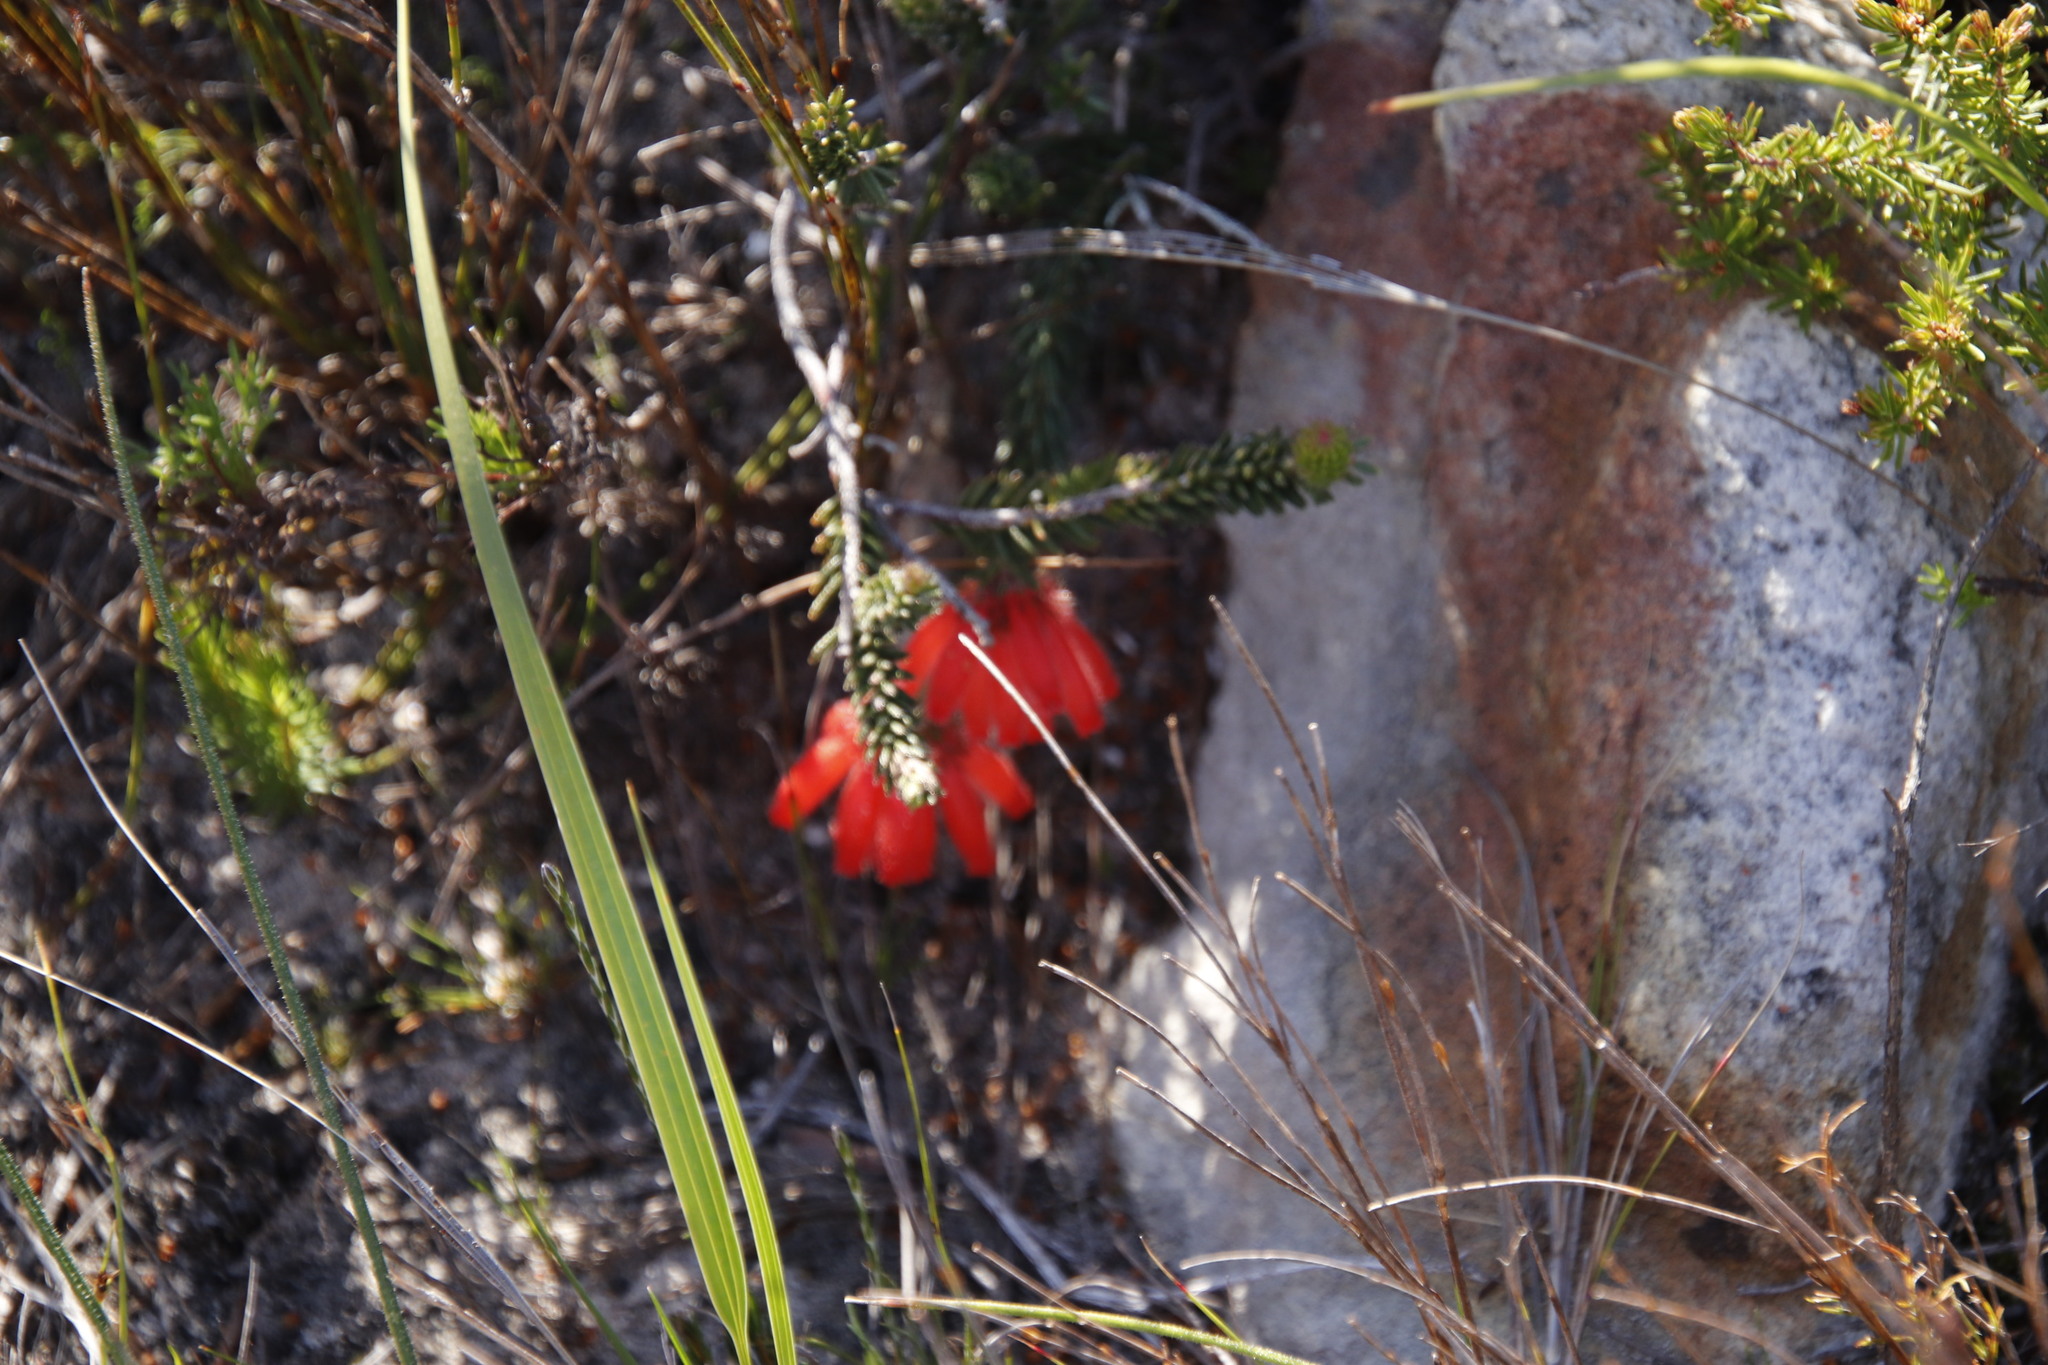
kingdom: Plantae
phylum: Tracheophyta
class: Magnoliopsida
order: Ericales
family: Ericaceae
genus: Erica
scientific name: Erica cerinthoides
